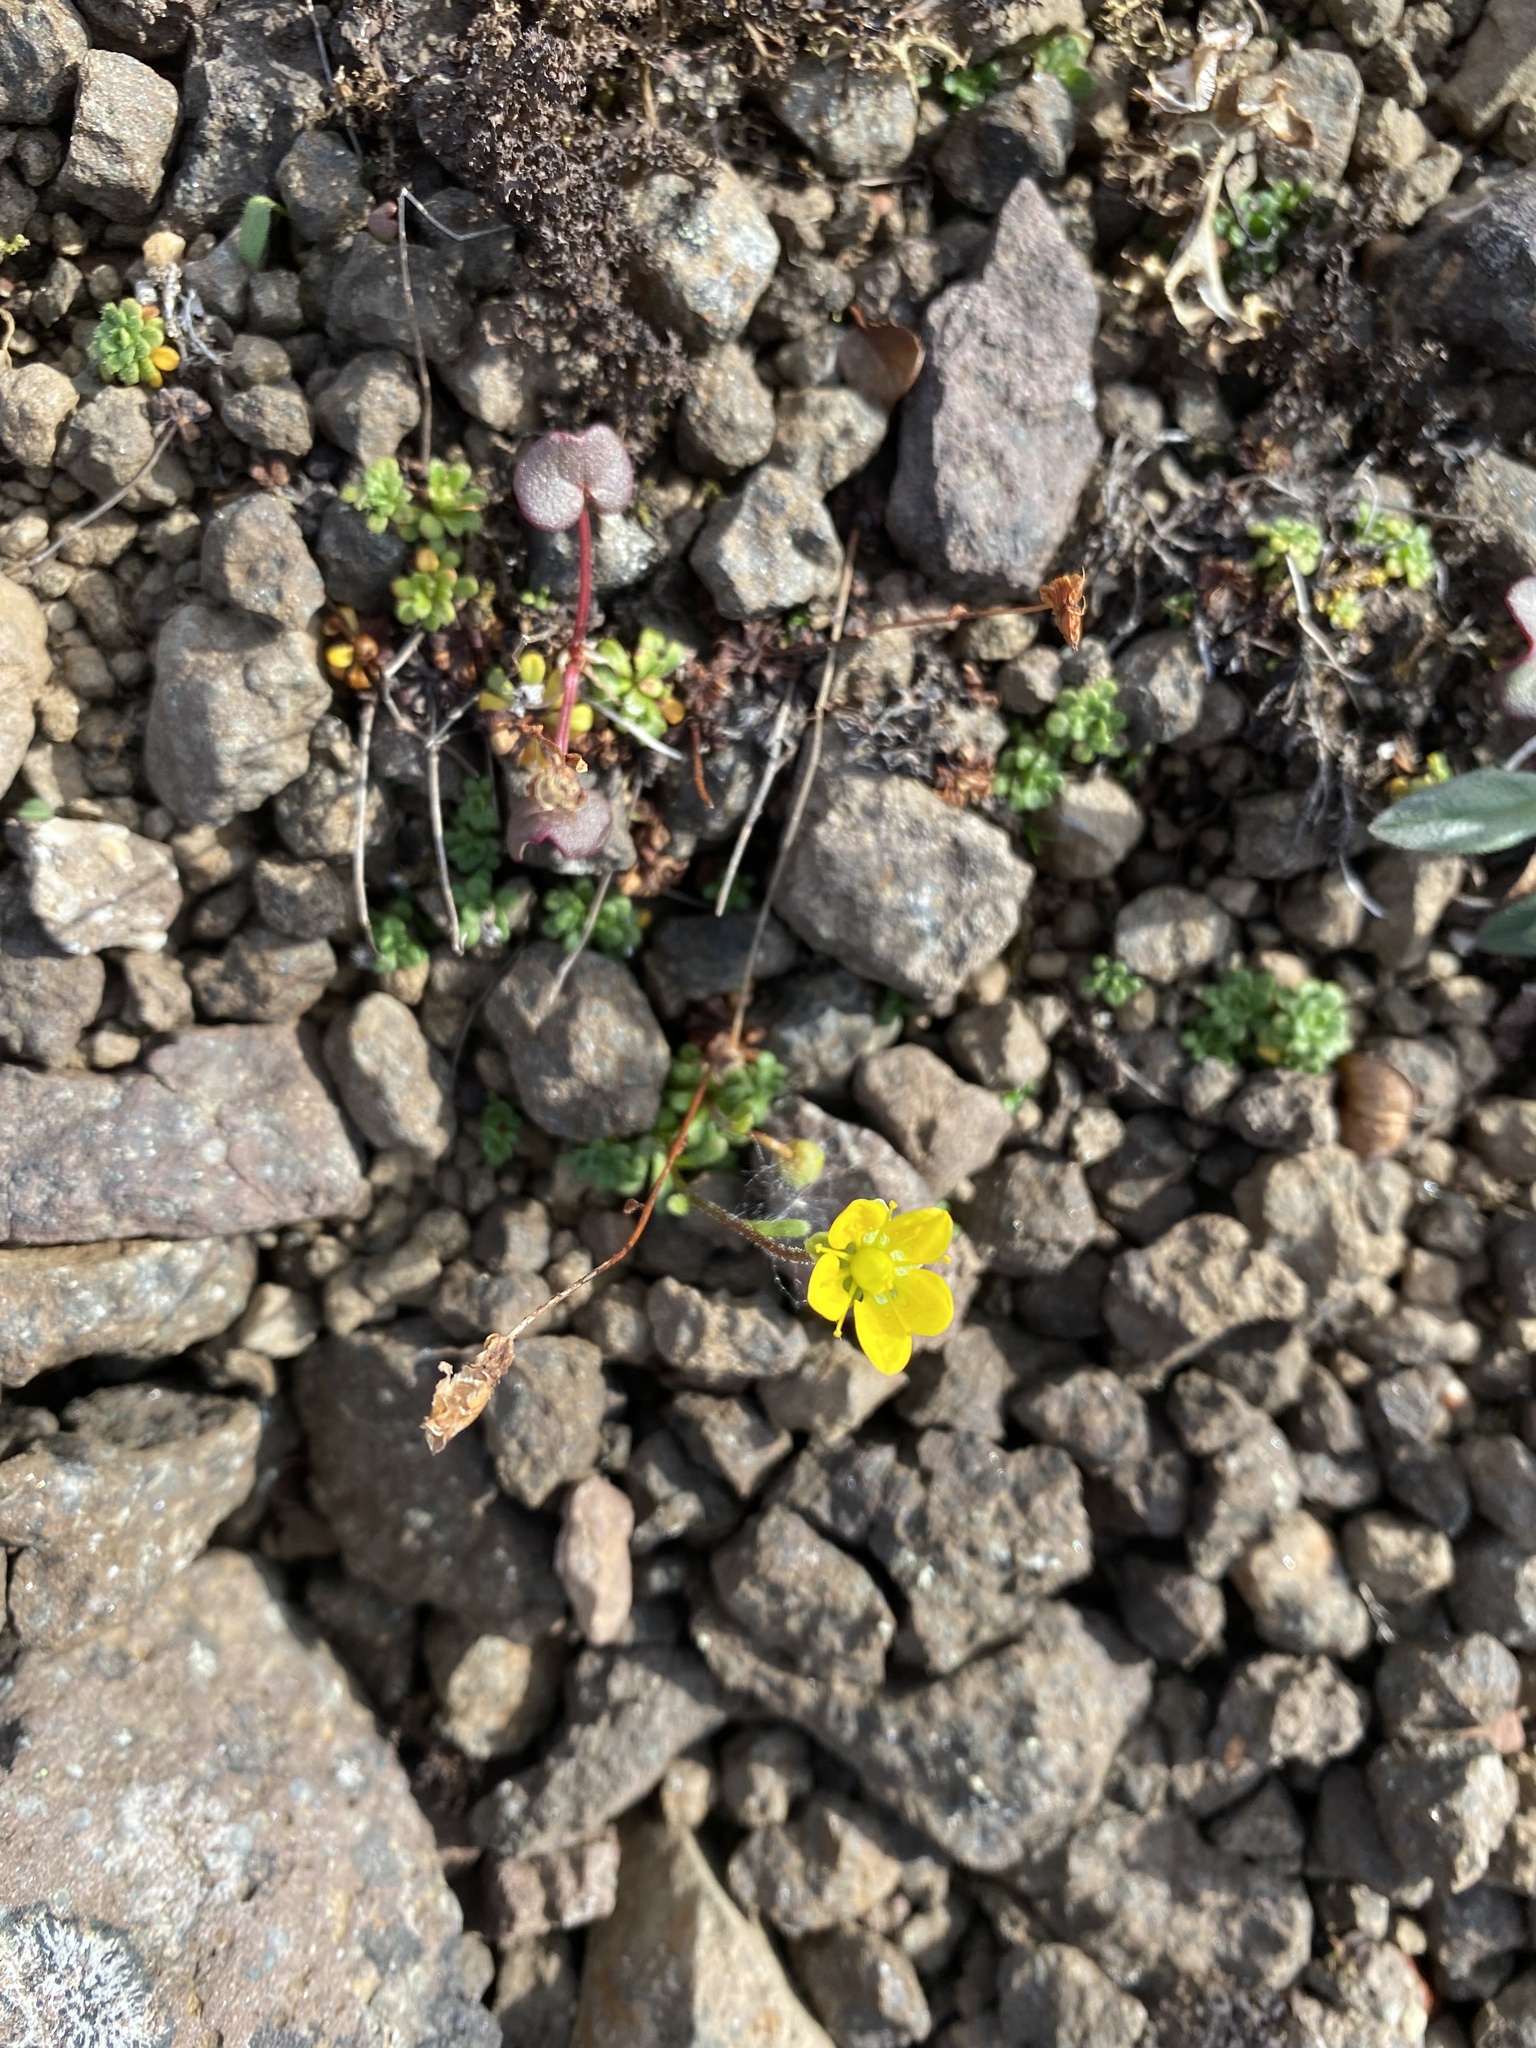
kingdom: Plantae
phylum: Tracheophyta
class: Magnoliopsida
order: Saxifragales
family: Saxifragaceae
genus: Saxifraga
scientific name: Saxifraga serpyllifolia
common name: Thyme-leaved saxifrage
